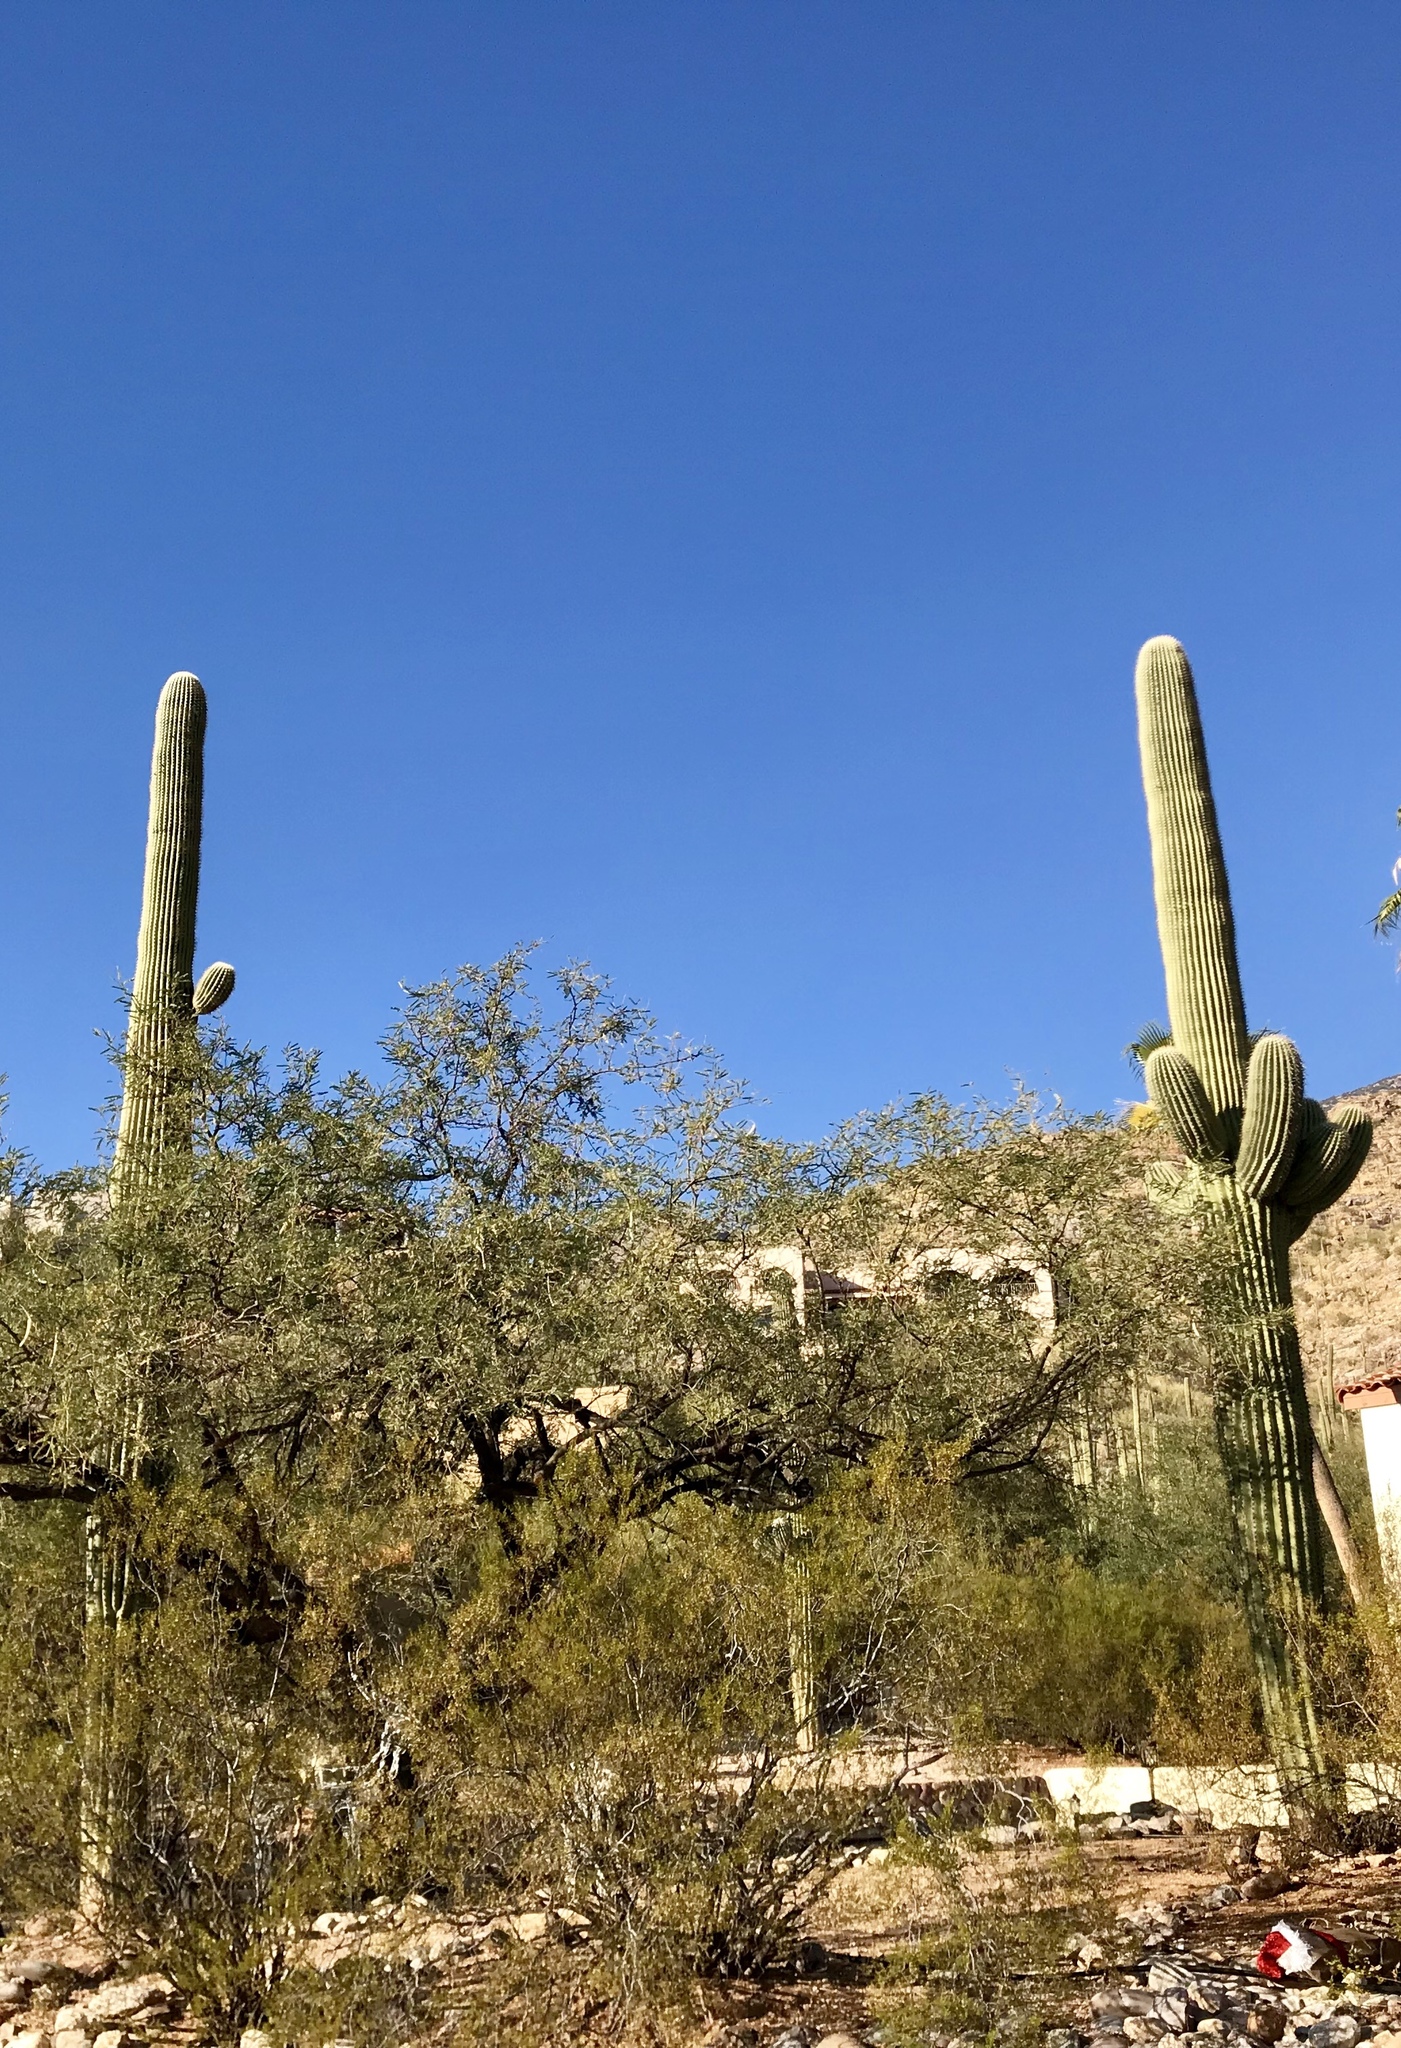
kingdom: Plantae
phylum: Tracheophyta
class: Magnoliopsida
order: Caryophyllales
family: Cactaceae
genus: Carnegiea
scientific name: Carnegiea gigantea
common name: Saguaro
